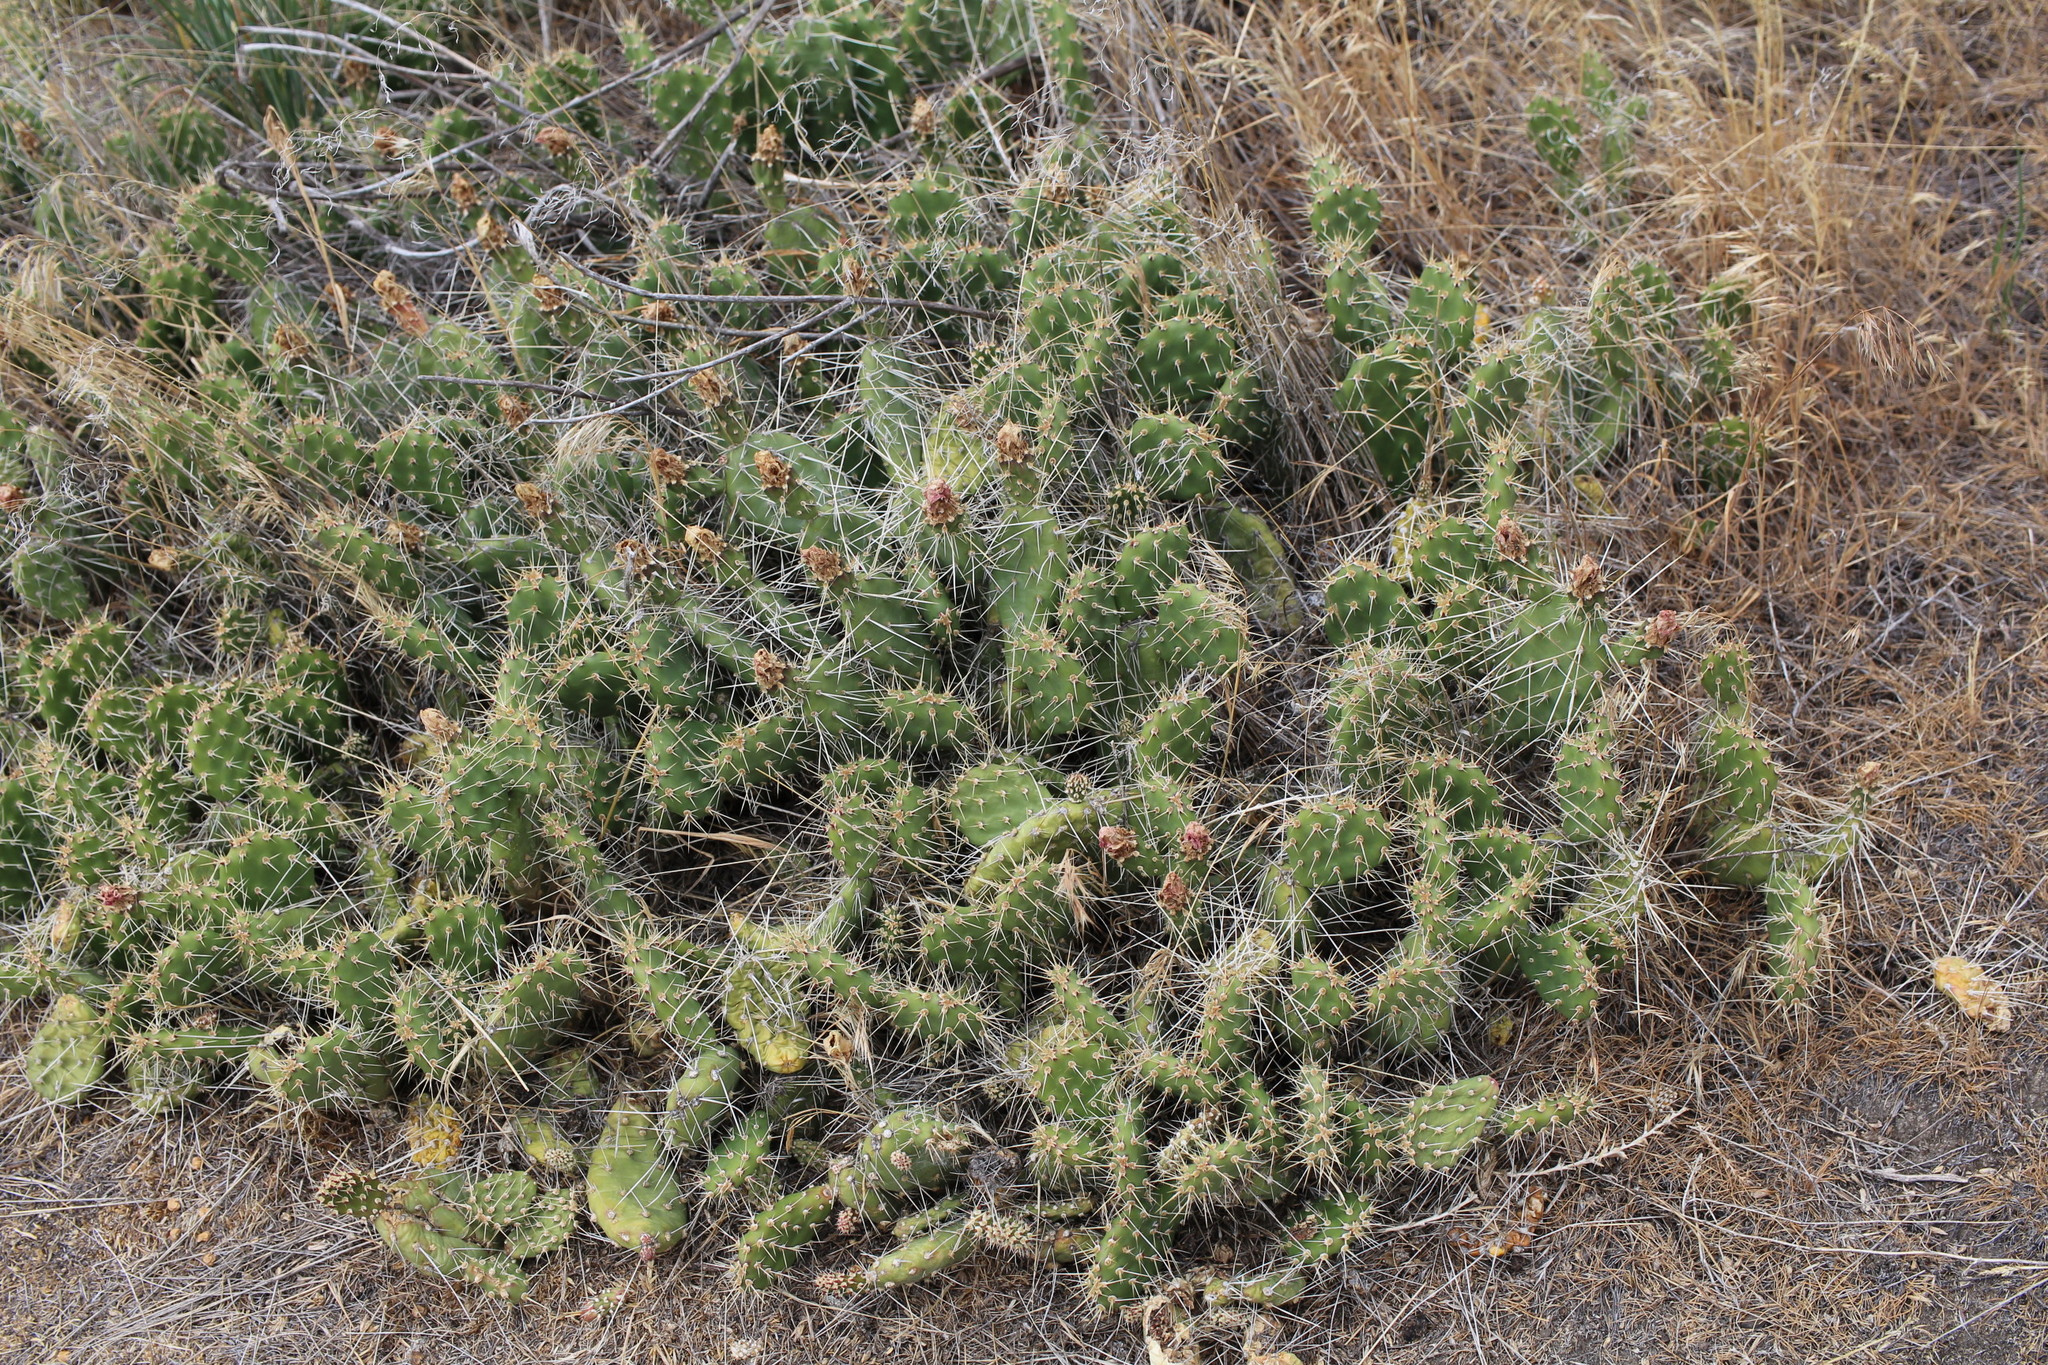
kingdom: Plantae
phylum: Tracheophyta
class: Magnoliopsida
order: Caryophyllales
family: Cactaceae
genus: Opuntia
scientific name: Opuntia columbiana
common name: Columbia prickly-pear
